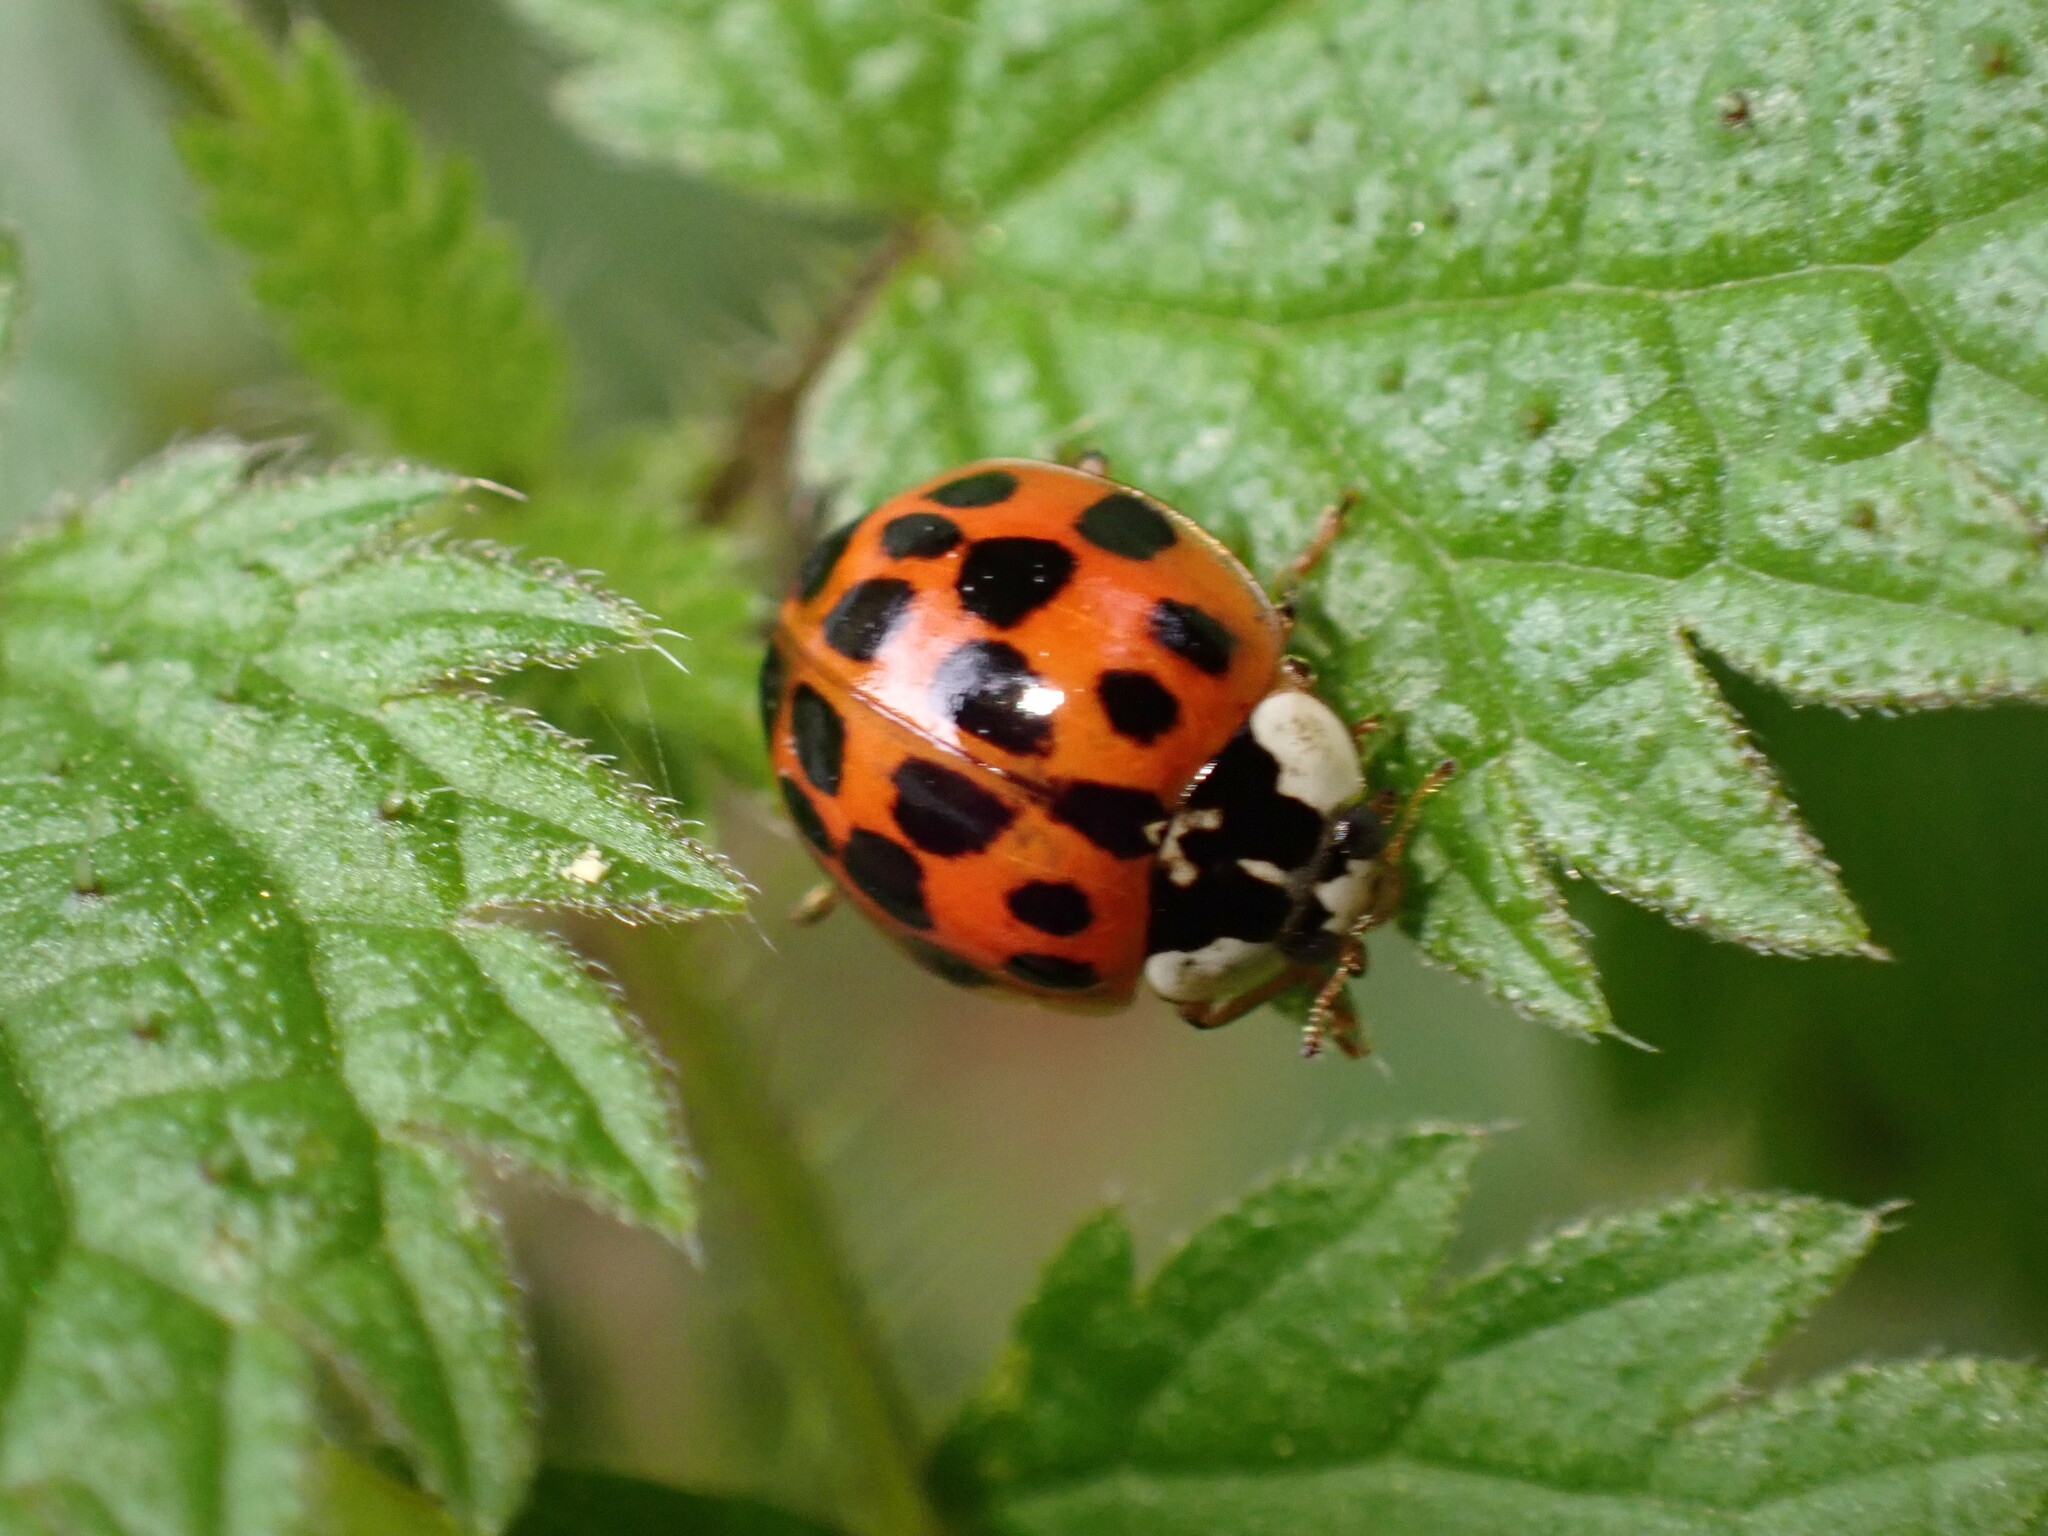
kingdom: Animalia
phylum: Arthropoda
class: Insecta
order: Coleoptera
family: Coccinellidae
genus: Harmonia
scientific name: Harmonia axyridis
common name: Harlequin ladybird
